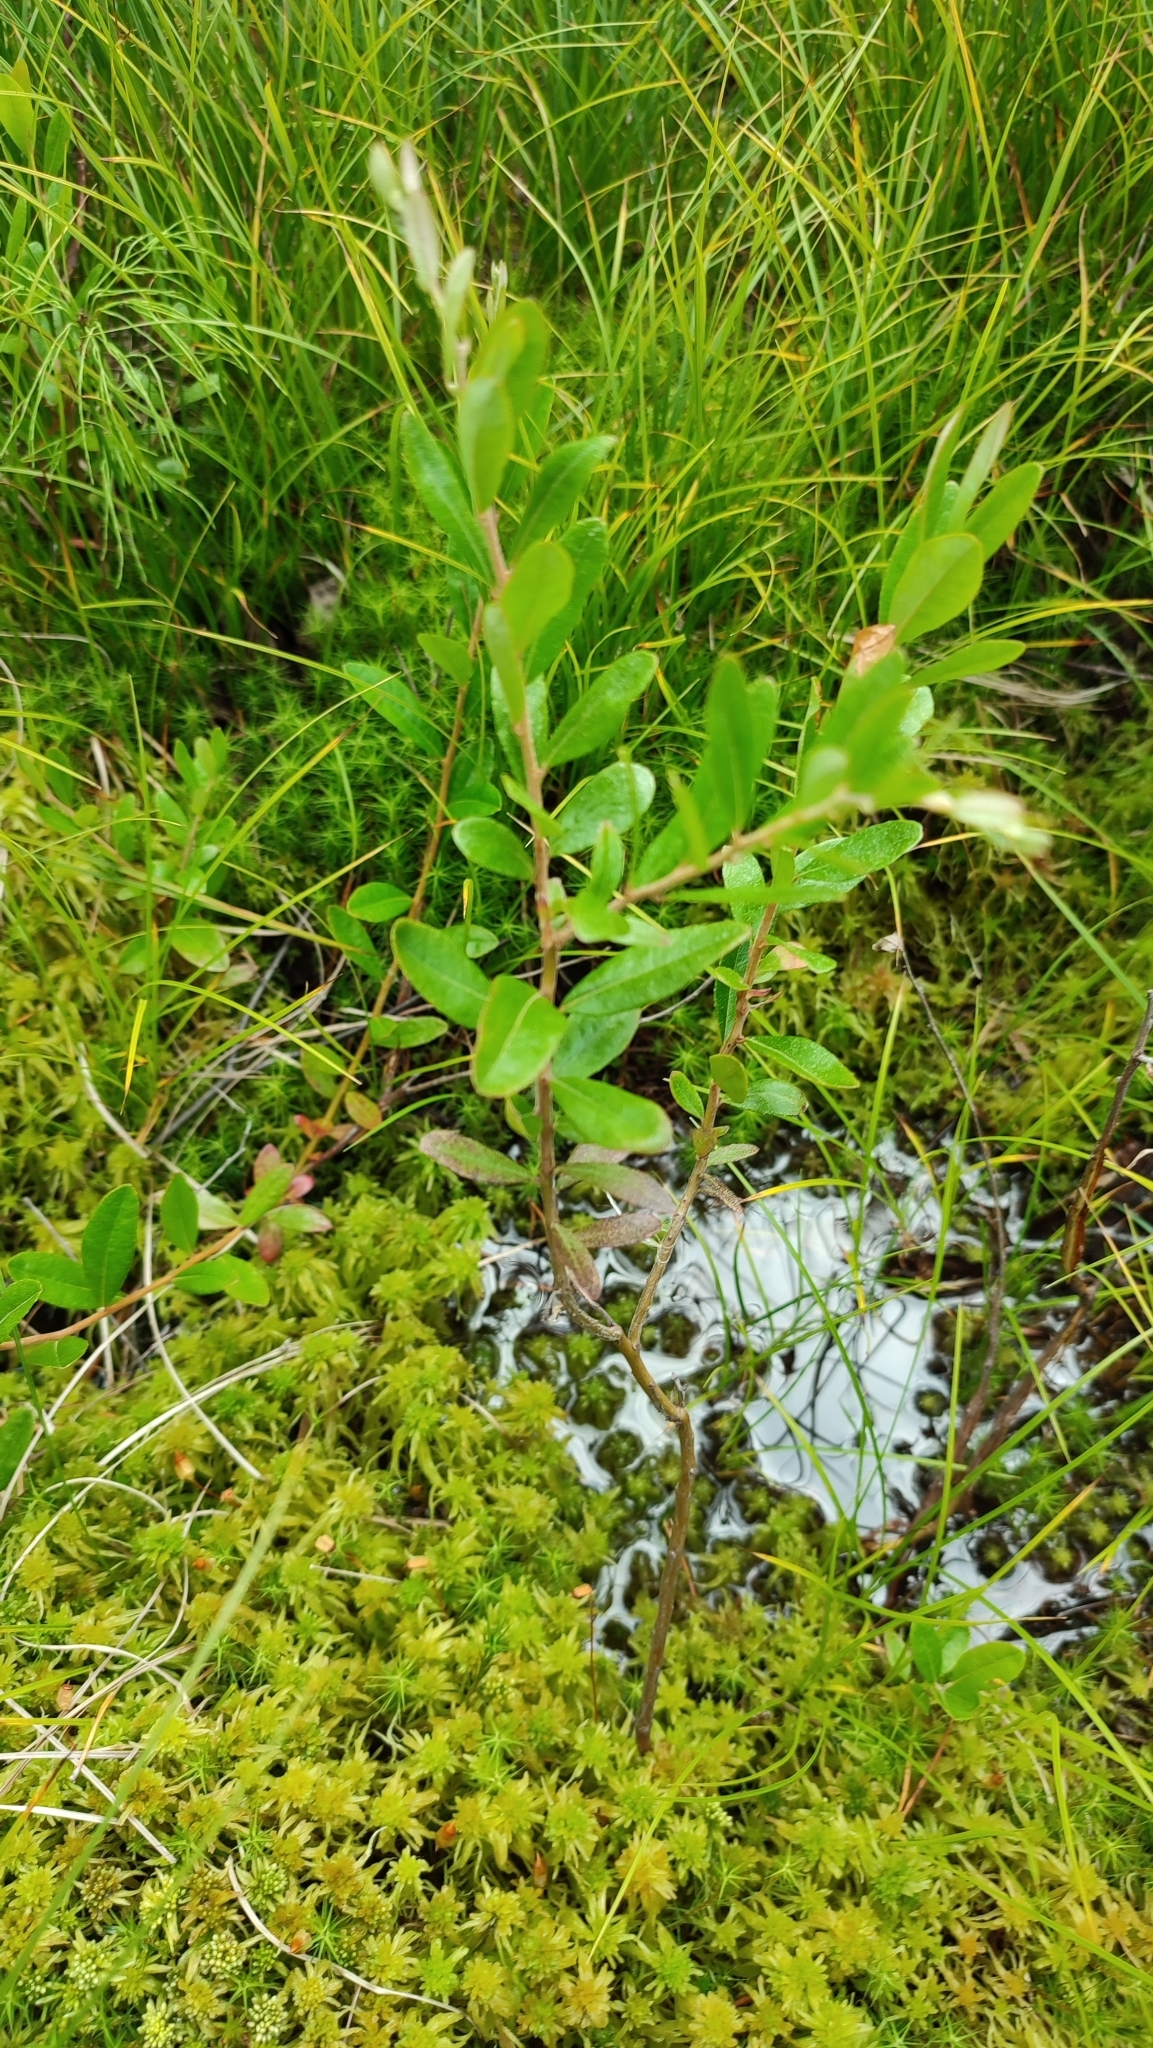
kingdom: Plantae
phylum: Tracheophyta
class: Magnoliopsida
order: Ericales
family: Ericaceae
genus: Chamaedaphne
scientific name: Chamaedaphne calyculata
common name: Leatherleaf
